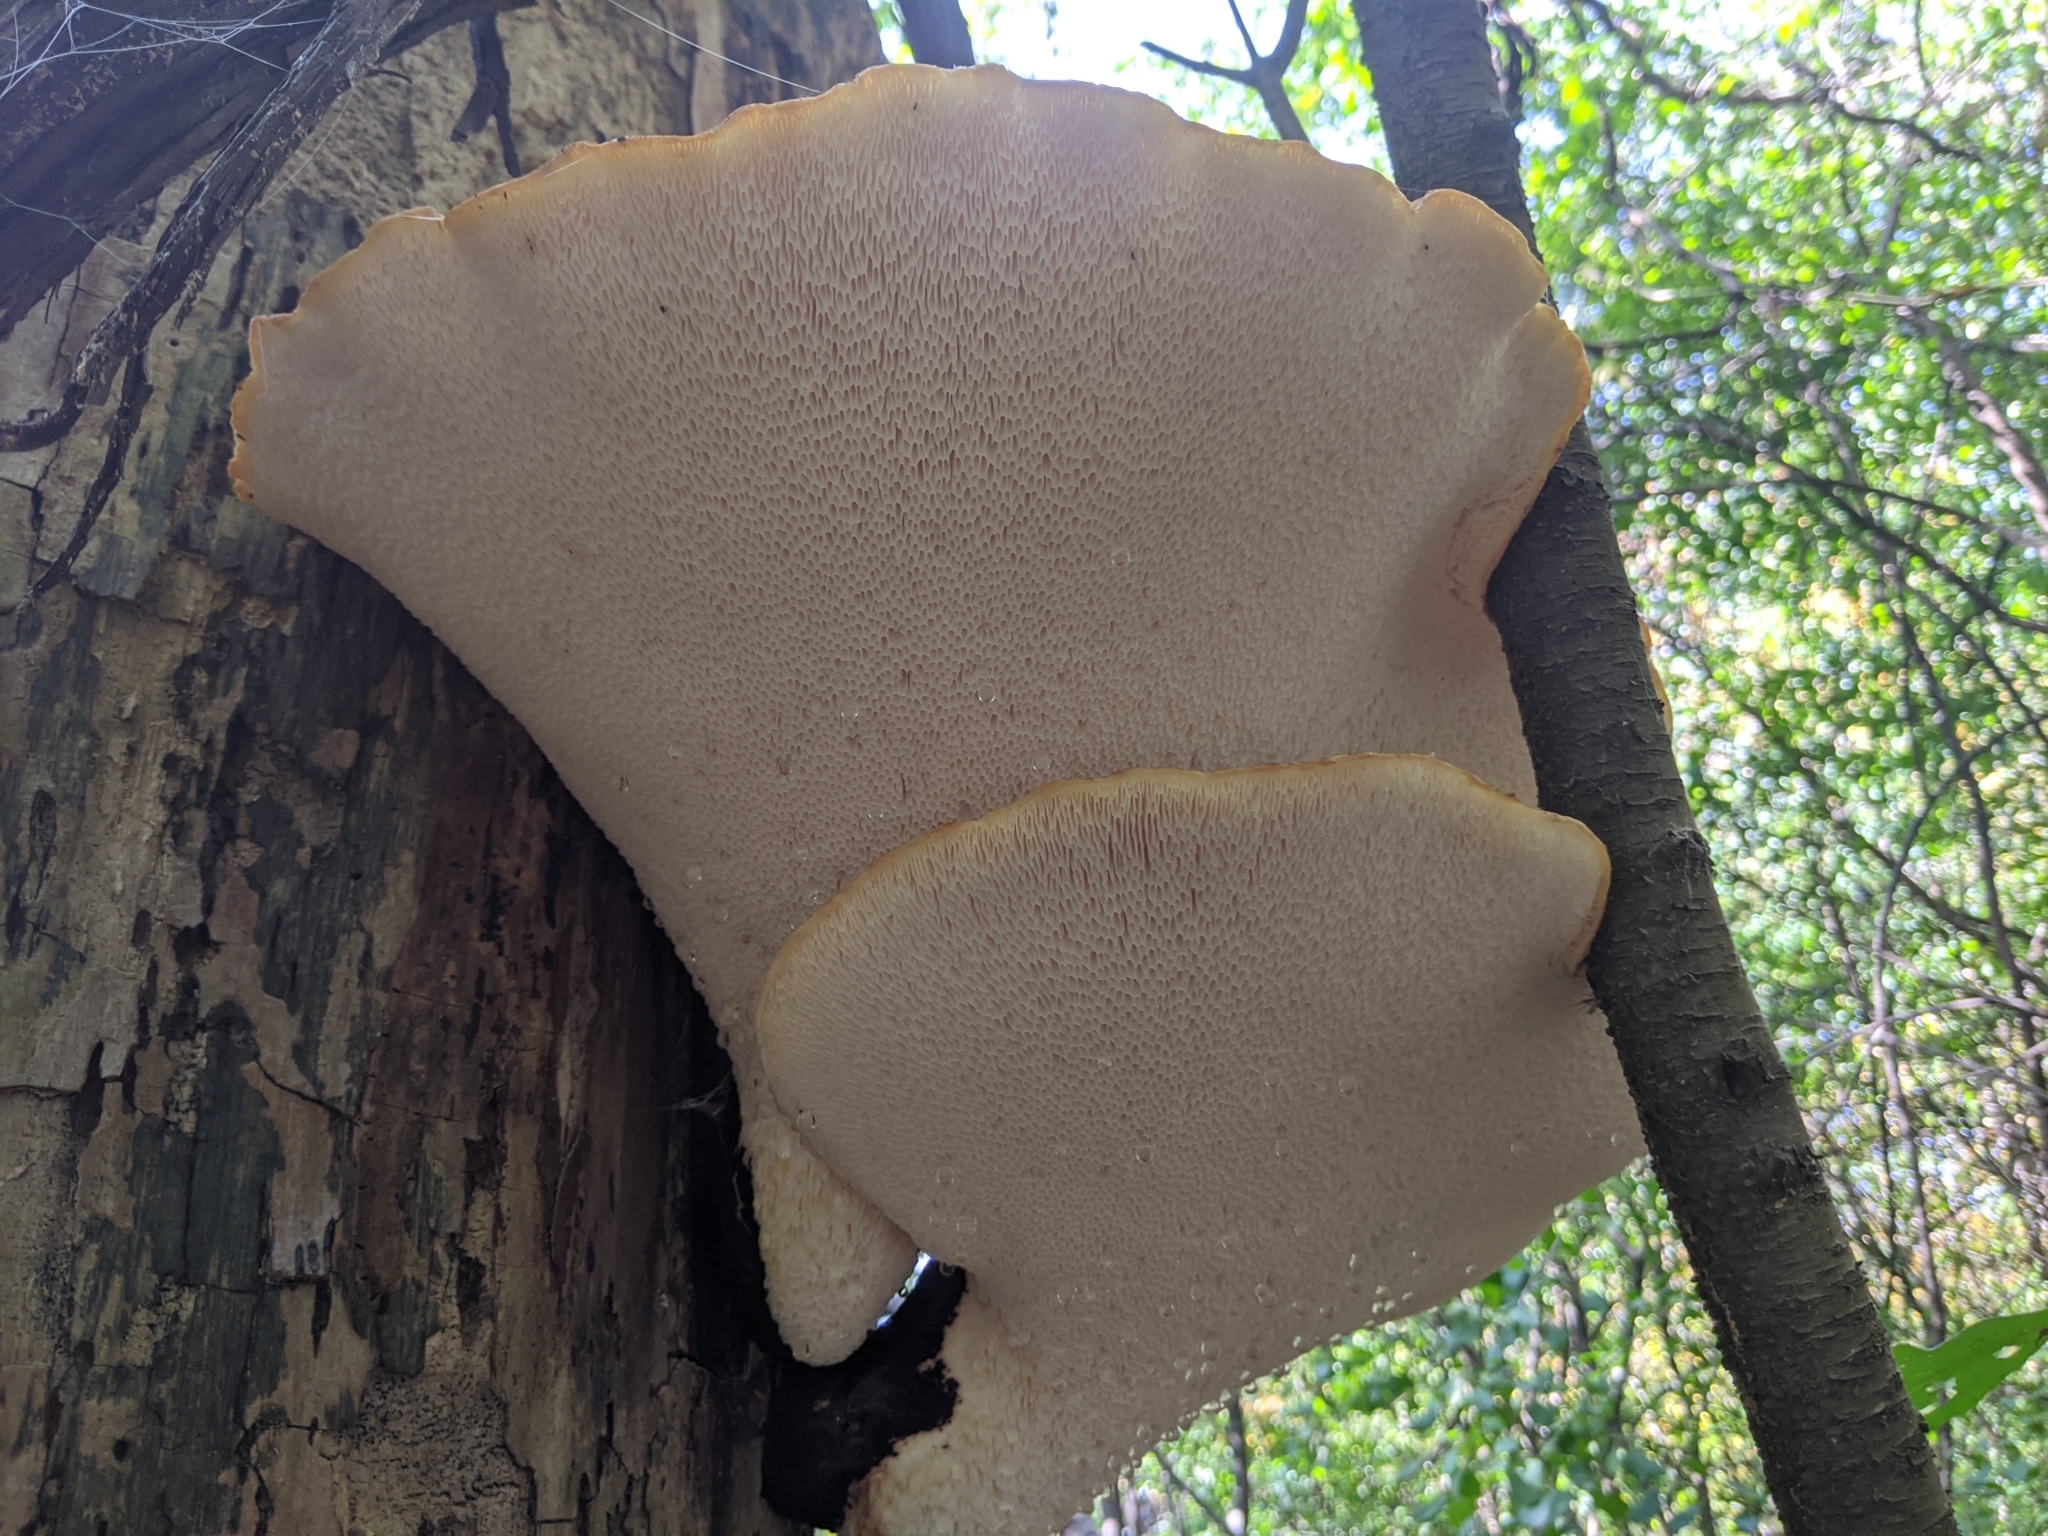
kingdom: Fungi
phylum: Basidiomycota
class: Agaricomycetes
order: Polyporales
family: Polyporaceae
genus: Cerioporus
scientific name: Cerioporus squamosus
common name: Dryad's saddle
